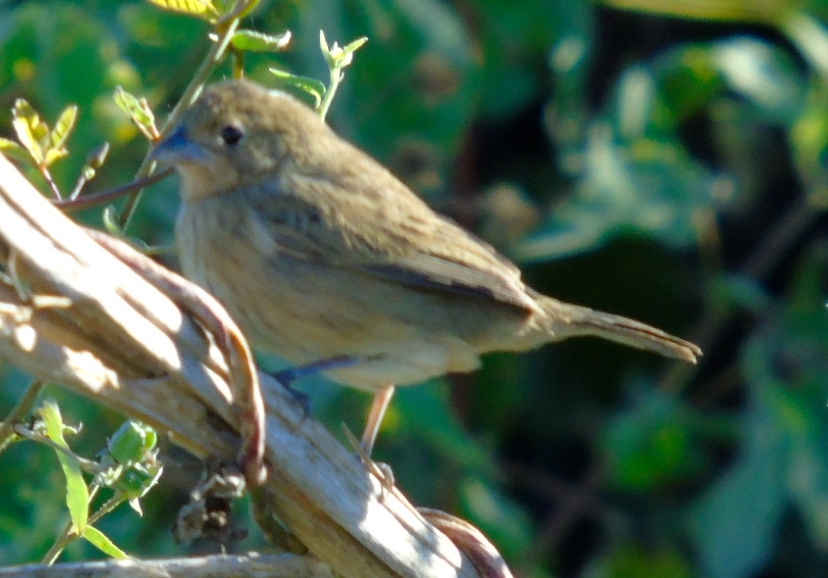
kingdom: Animalia
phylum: Chordata
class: Aves
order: Passeriformes
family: Thraupidae
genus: Volatinia
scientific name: Volatinia jacarina
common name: Blue-black grassquit
